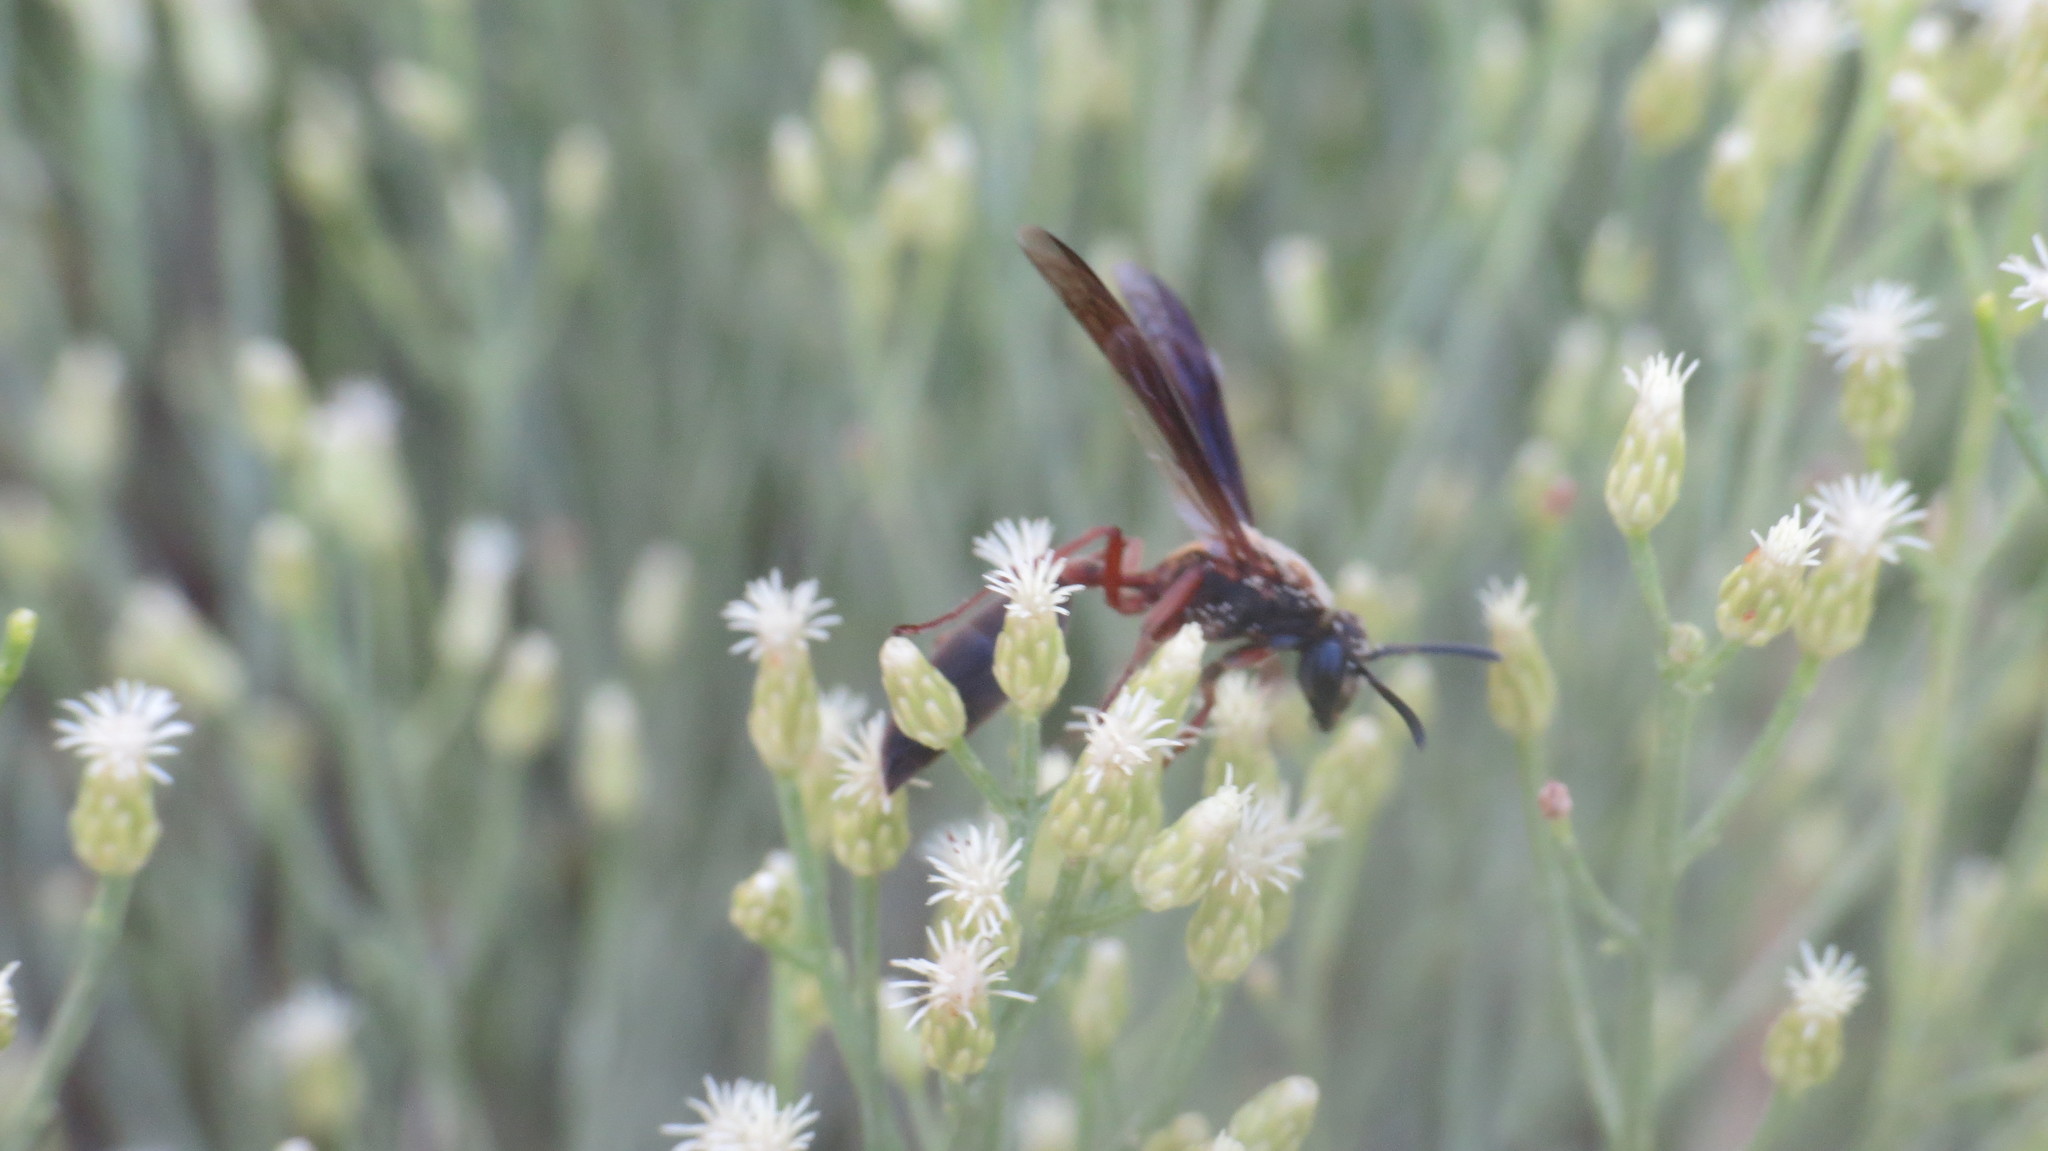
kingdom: Animalia
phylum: Arthropoda
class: Insecta
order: Hymenoptera
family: Eumenidae
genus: Polybia
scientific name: Polybia sericea
